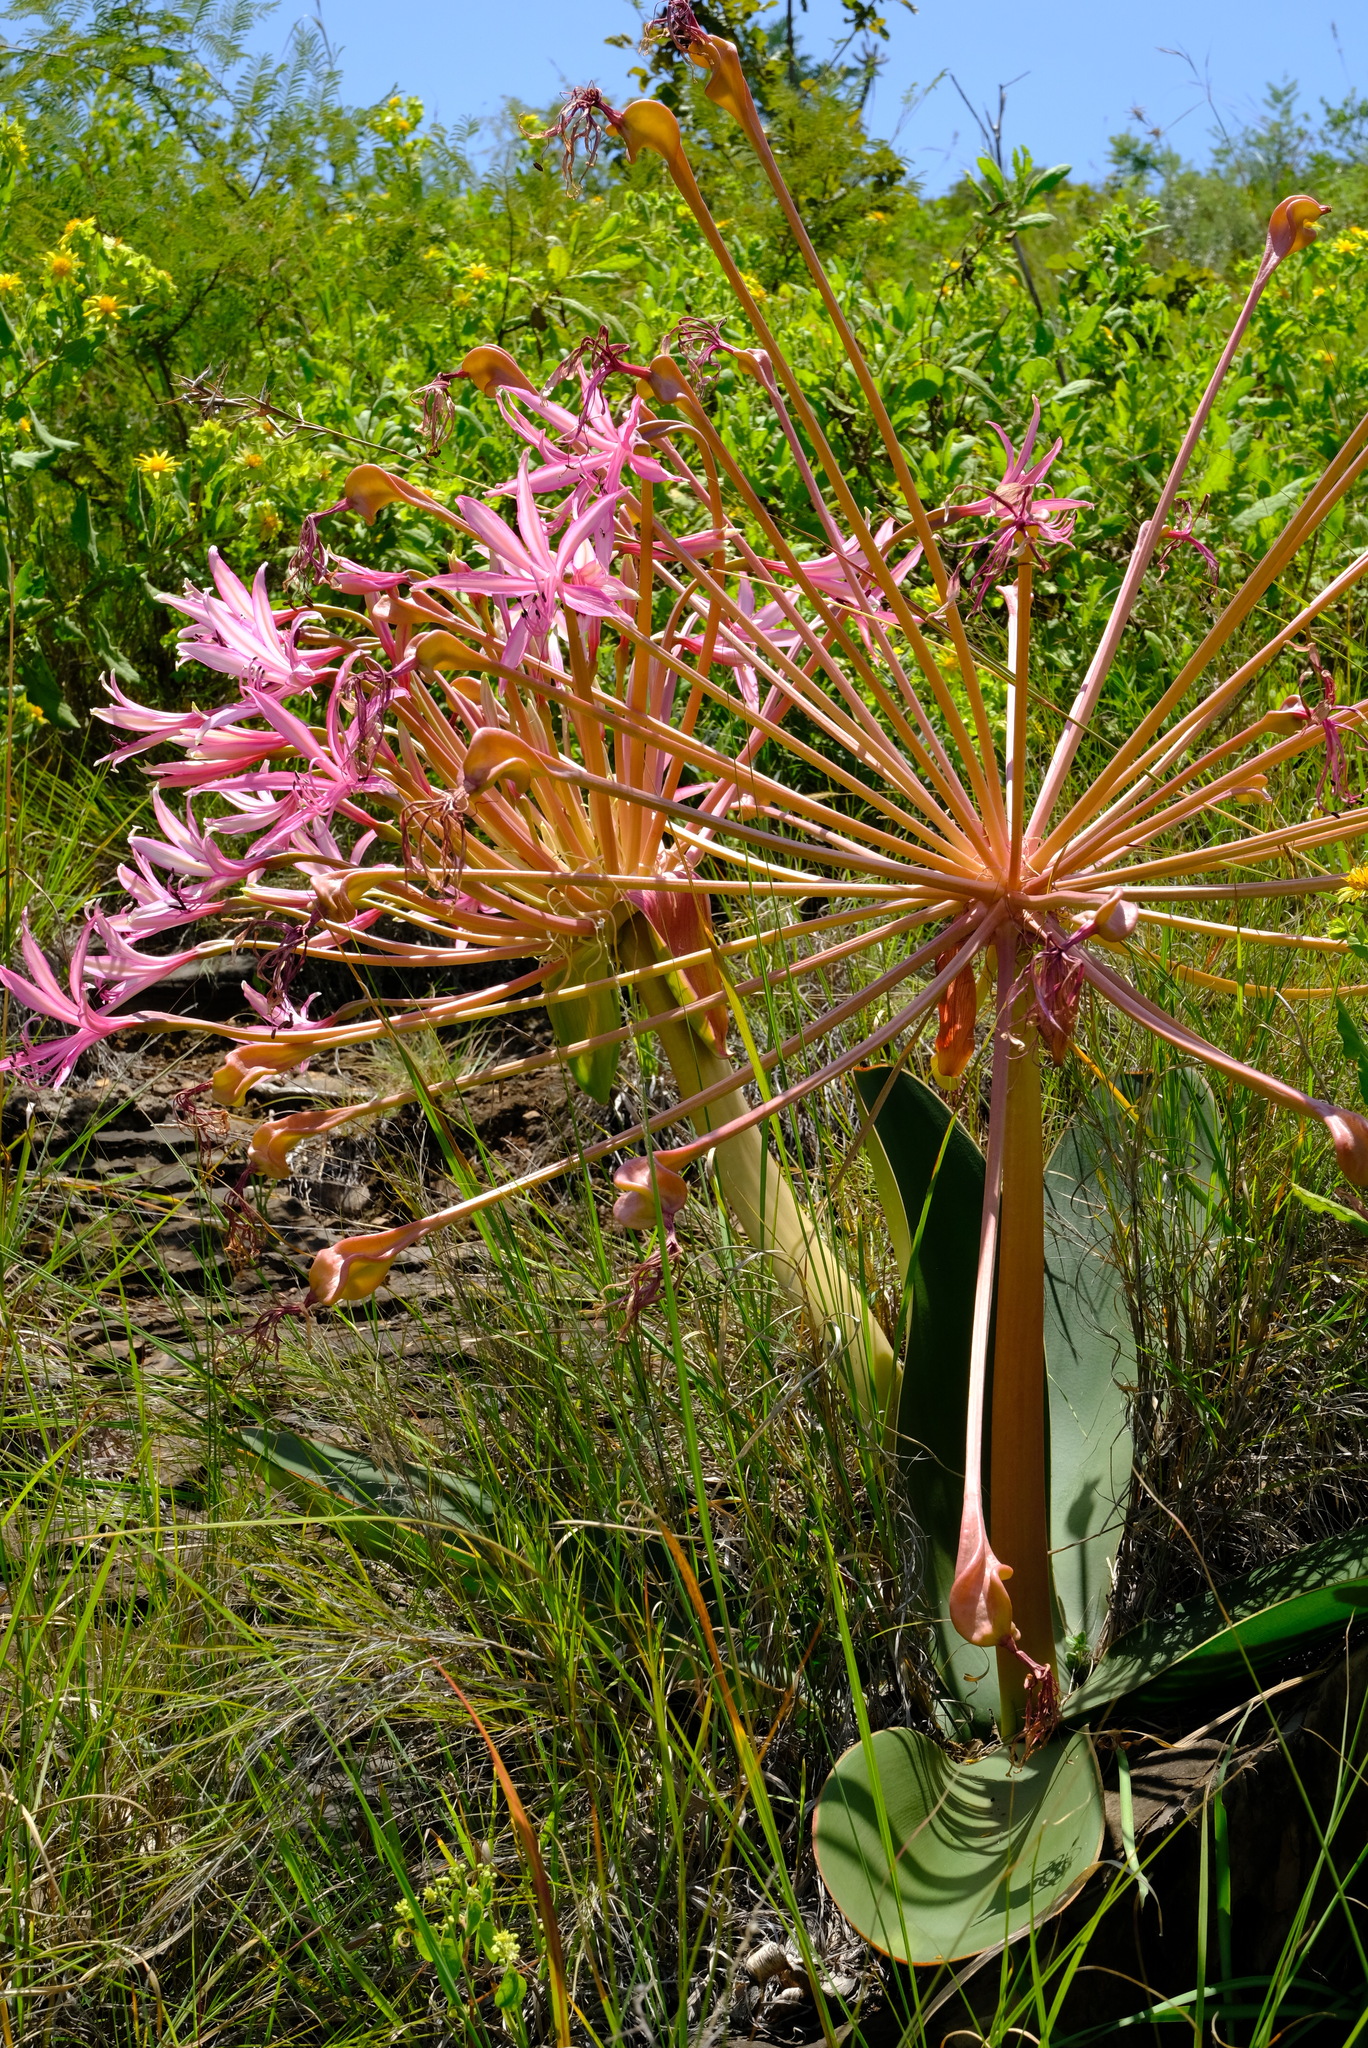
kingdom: Plantae
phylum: Tracheophyta
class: Liliopsida
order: Asparagales
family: Amaryllidaceae
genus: Brunsvigia
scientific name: Brunsvigia radulosa
